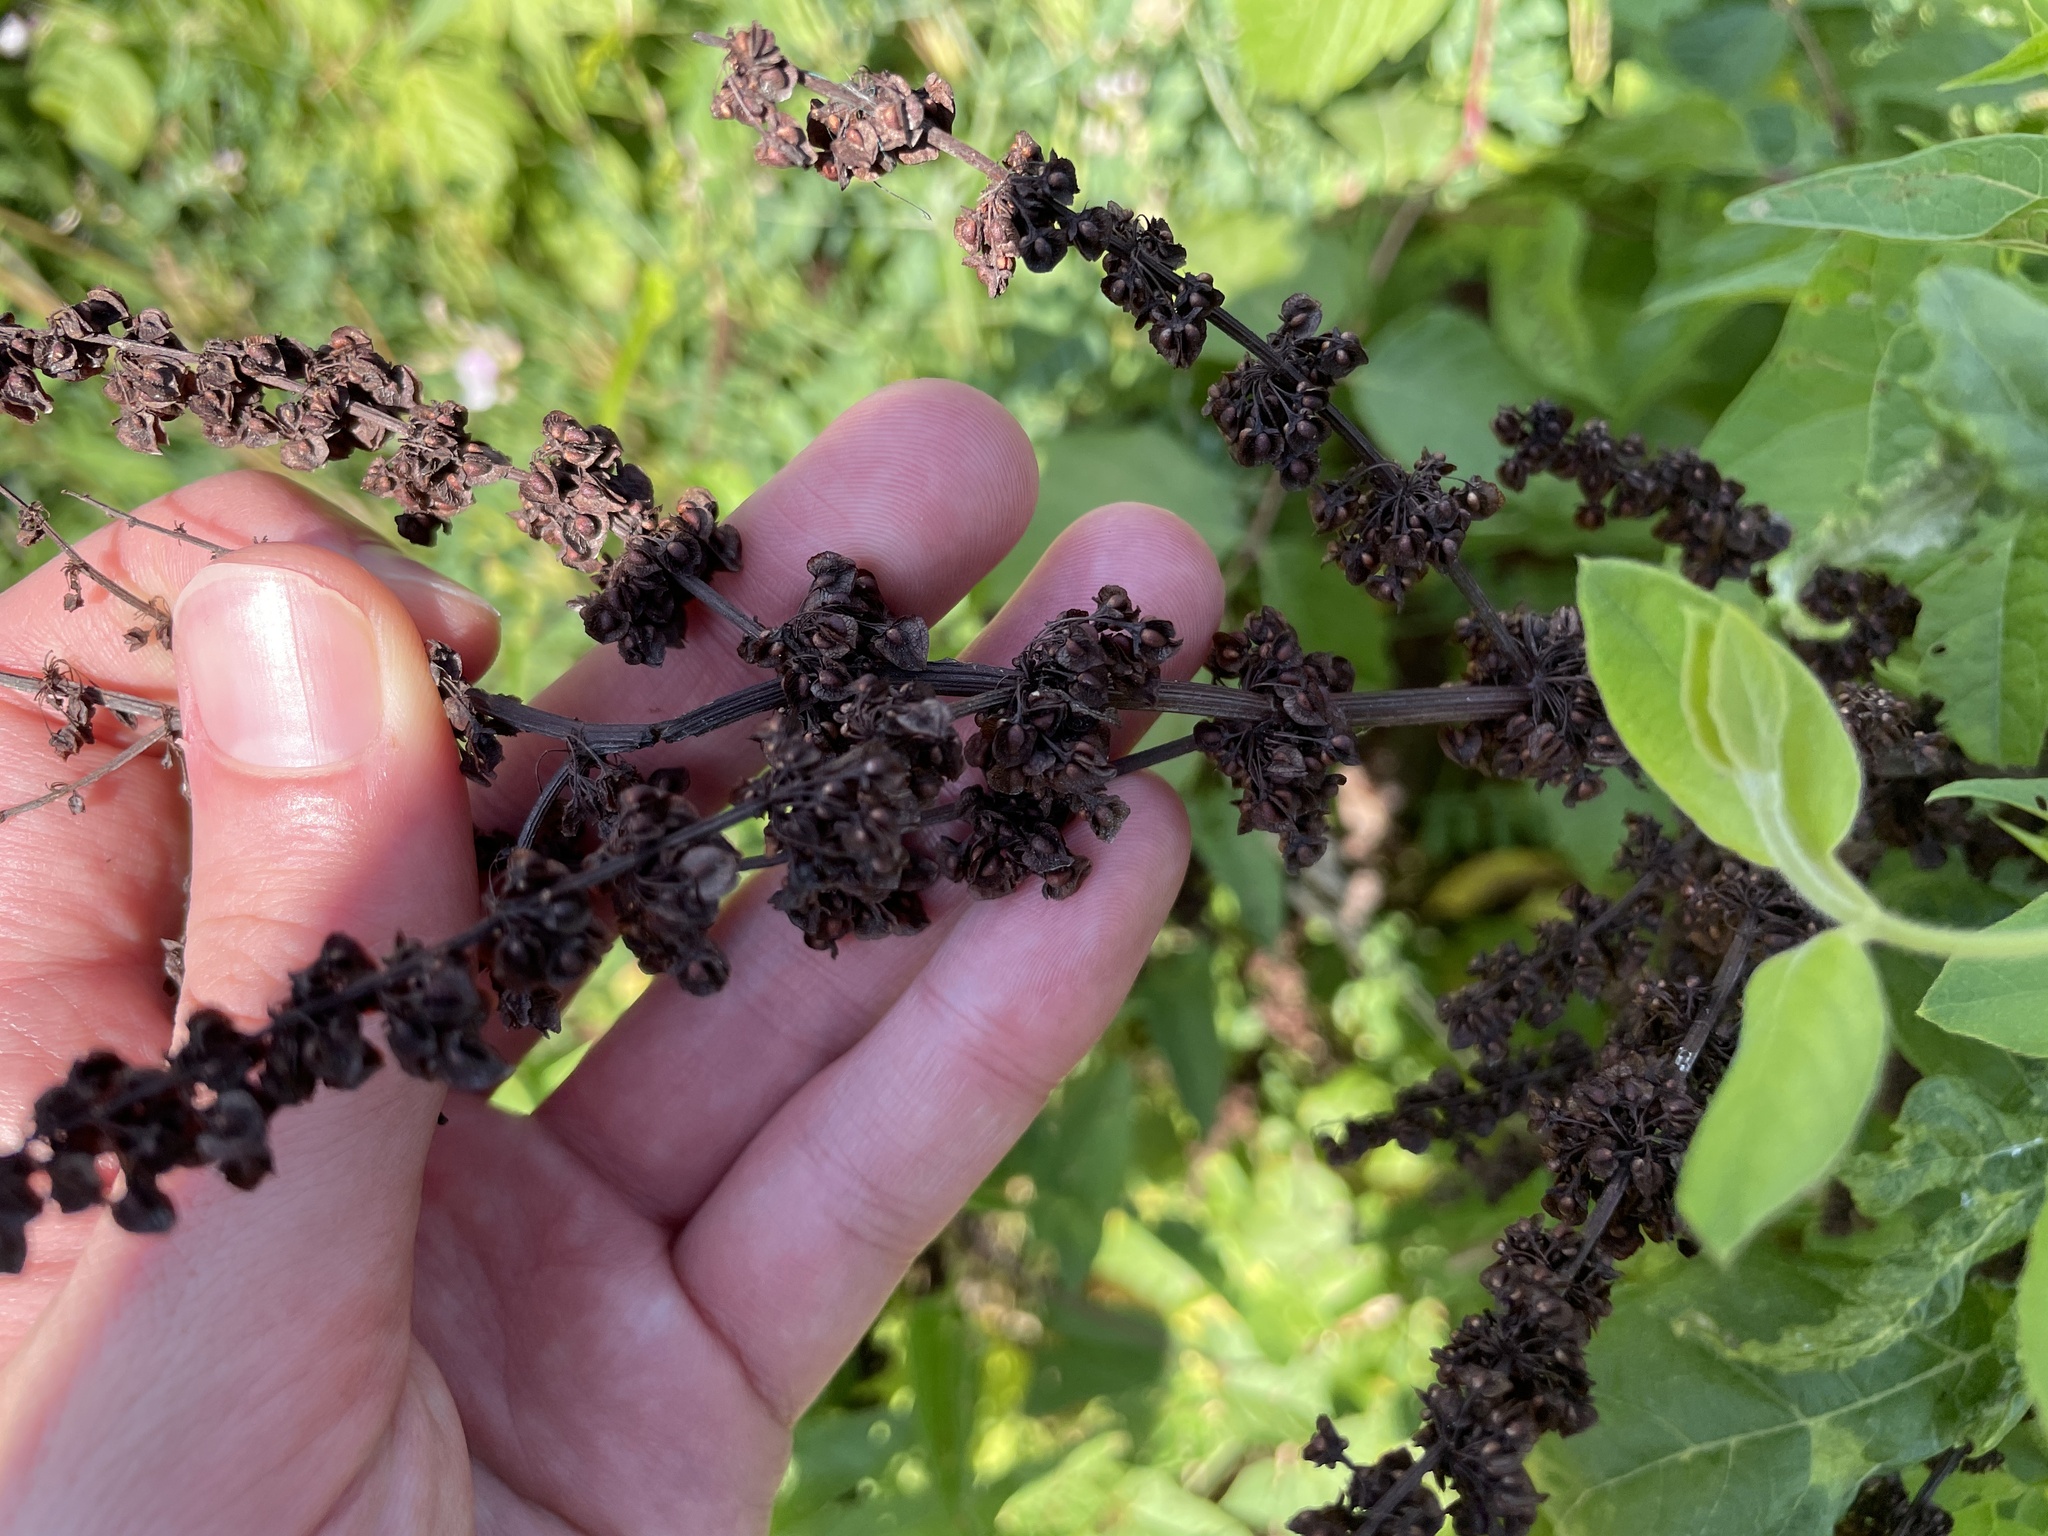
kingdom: Plantae
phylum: Tracheophyta
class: Magnoliopsida
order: Caryophyllales
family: Polygonaceae
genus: Rumex
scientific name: Rumex crispus
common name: Curled dock
